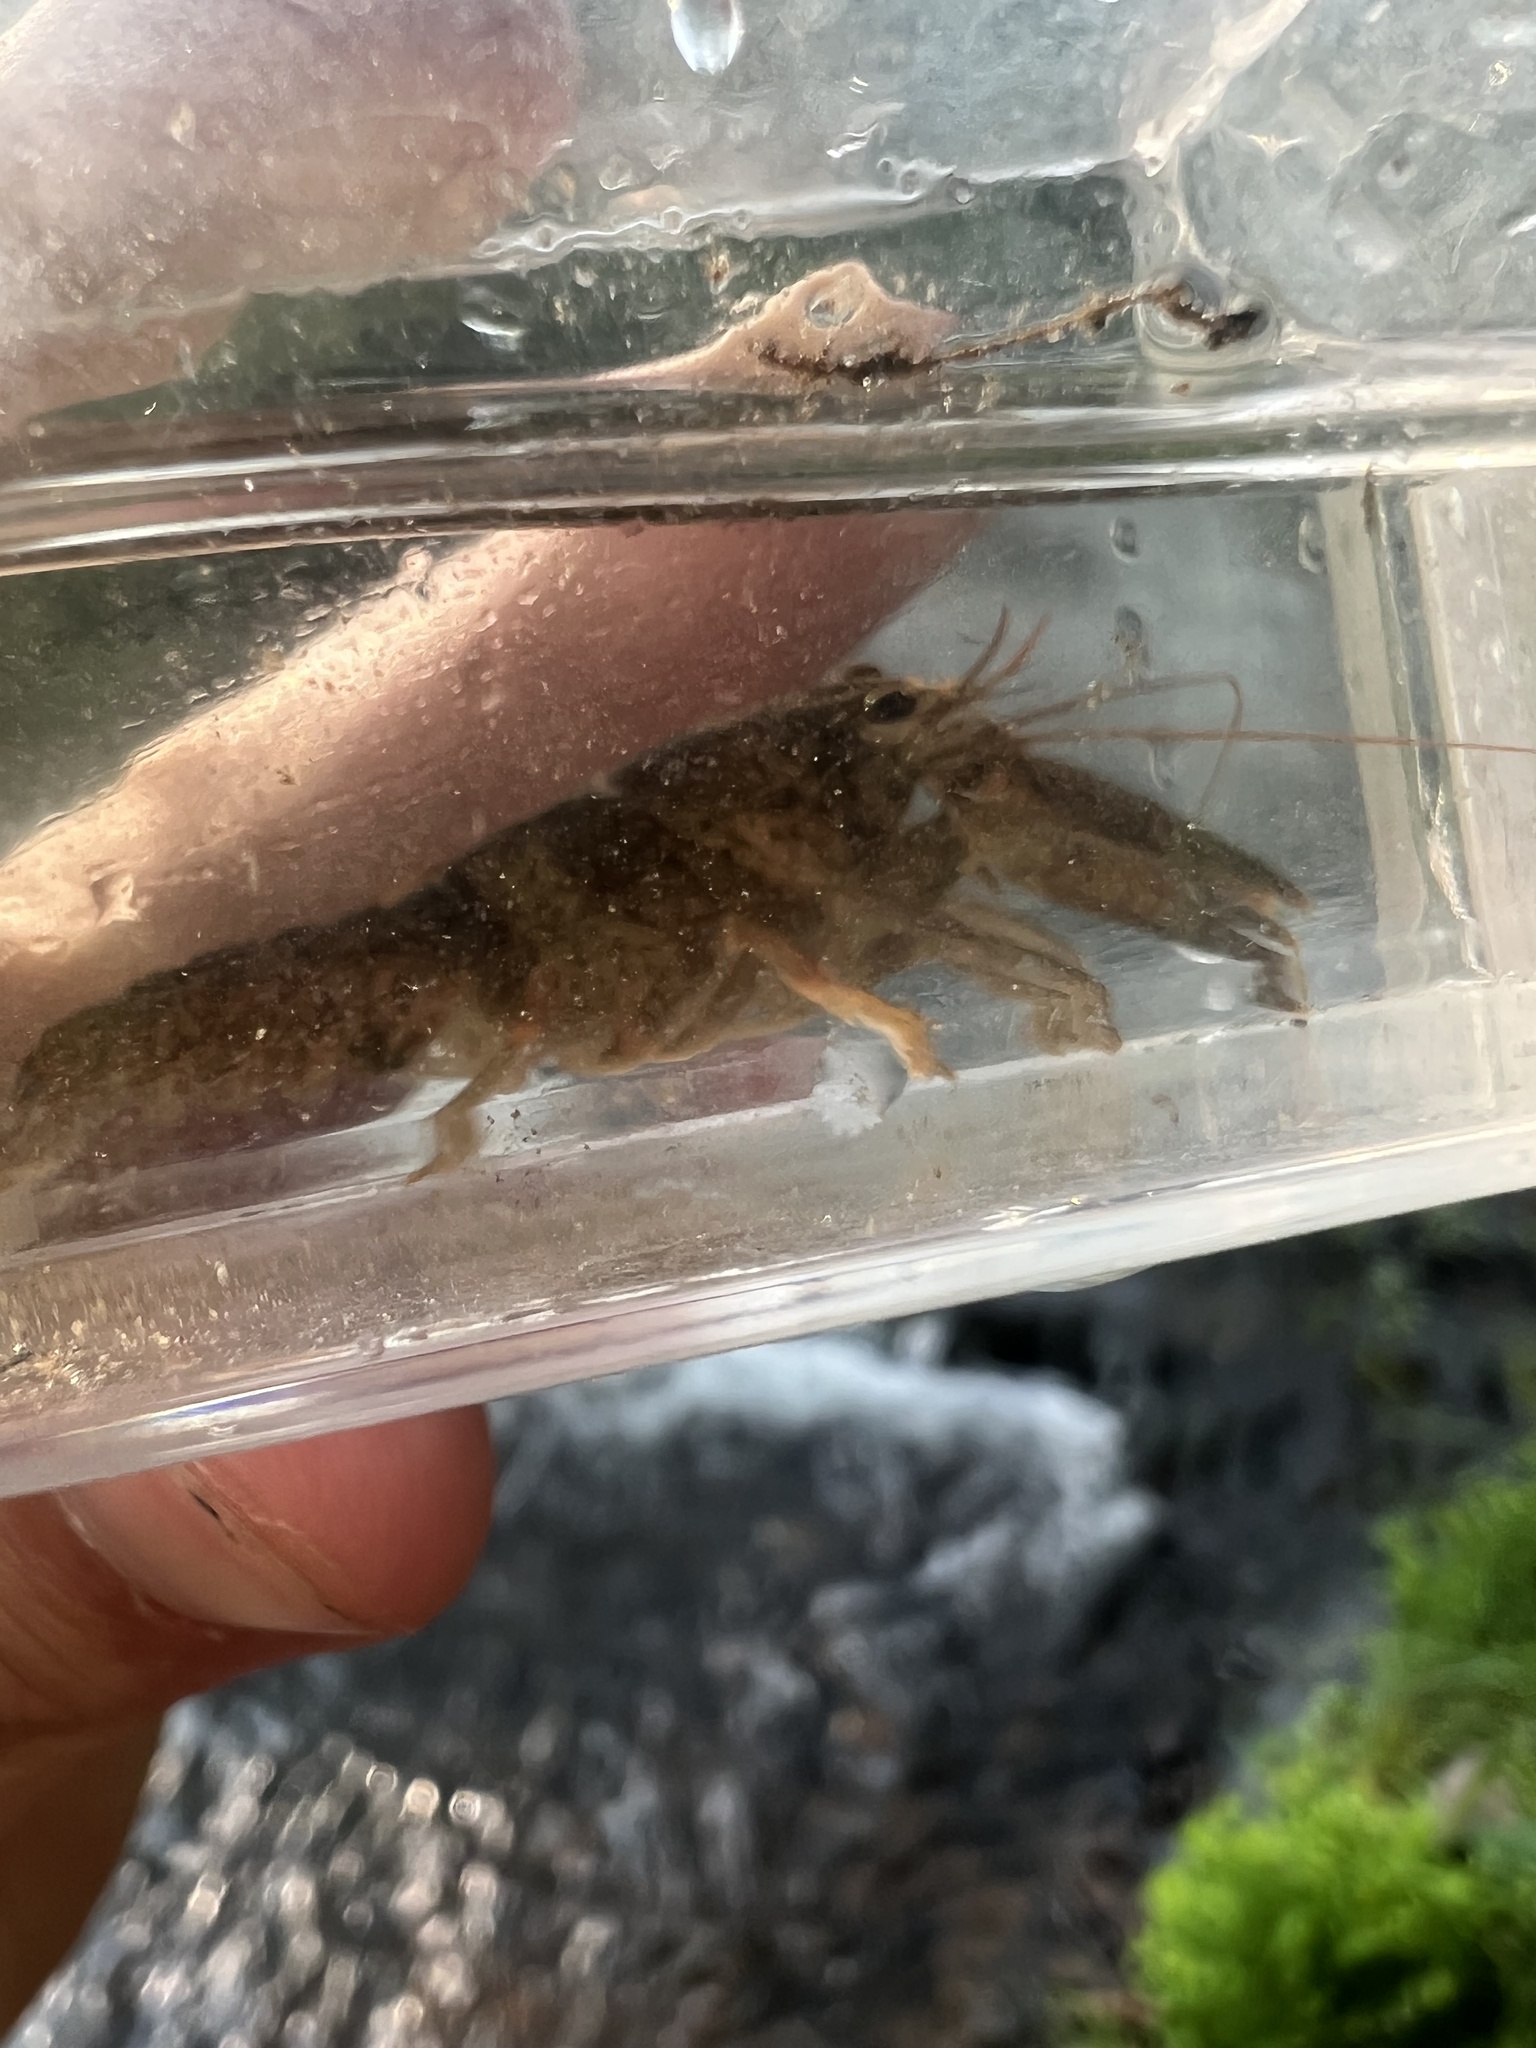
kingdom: Animalia
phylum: Arthropoda
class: Malacostraca
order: Decapoda
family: Cambaridae
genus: Cambarus
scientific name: Cambarus graysoni
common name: Twospot crayfish
